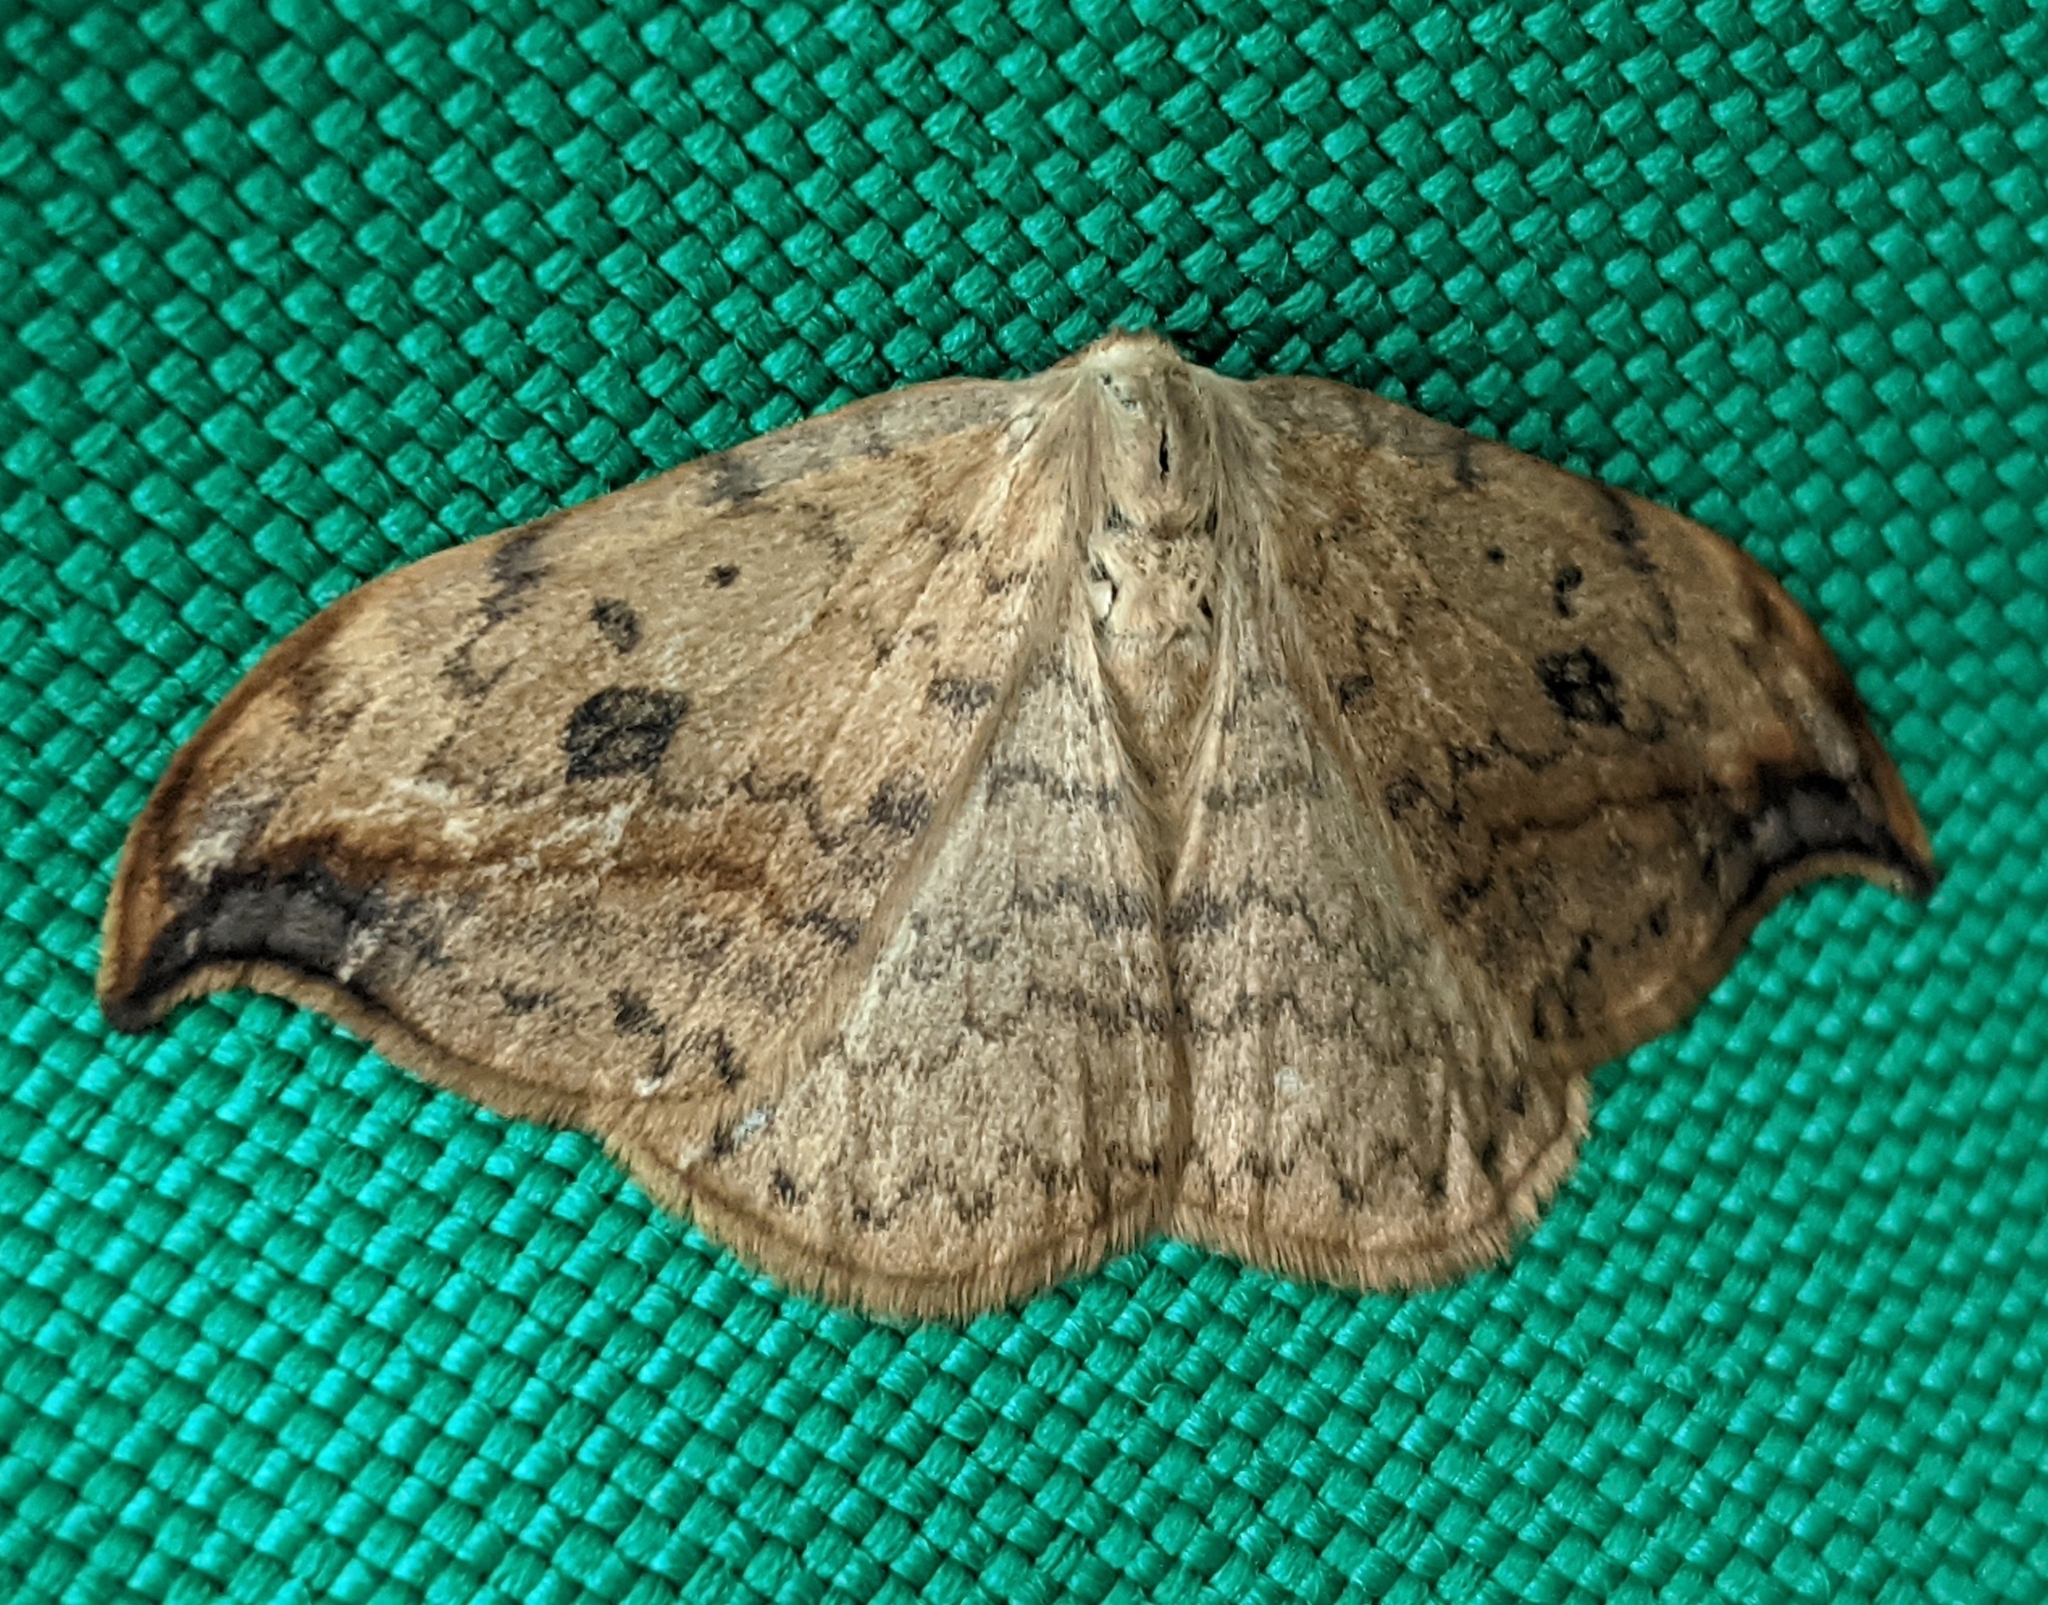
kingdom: Animalia
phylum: Arthropoda
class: Insecta
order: Lepidoptera
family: Drepanidae
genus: Drepana
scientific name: Drepana falcataria
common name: Pebble hook-tip
